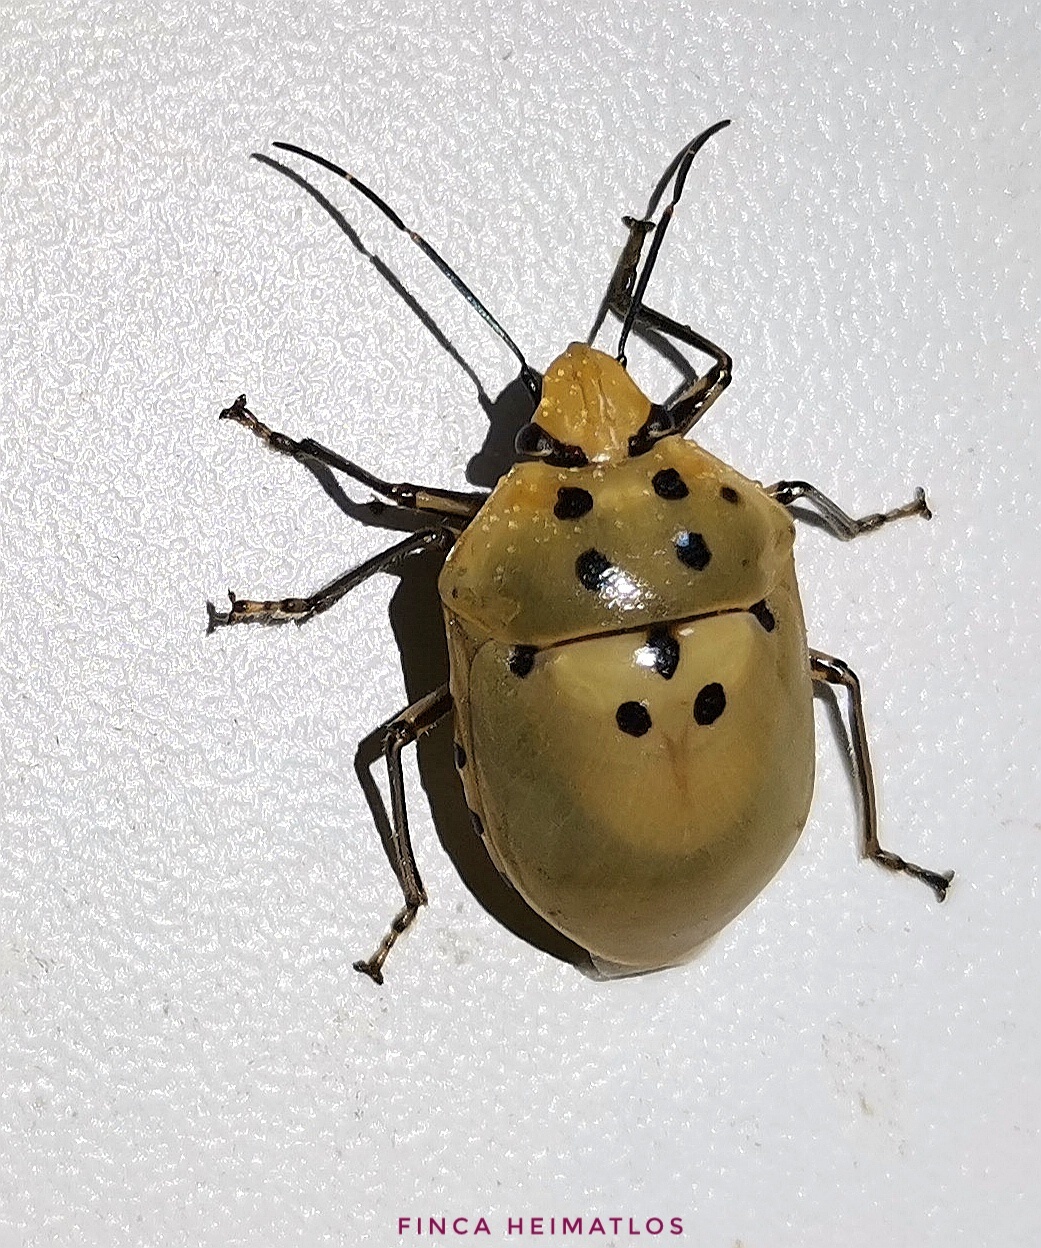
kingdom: Animalia
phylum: Arthropoda
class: Insecta
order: Hemiptera
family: Scutelleridae
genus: Augocoris
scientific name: Augocoris gomesii
